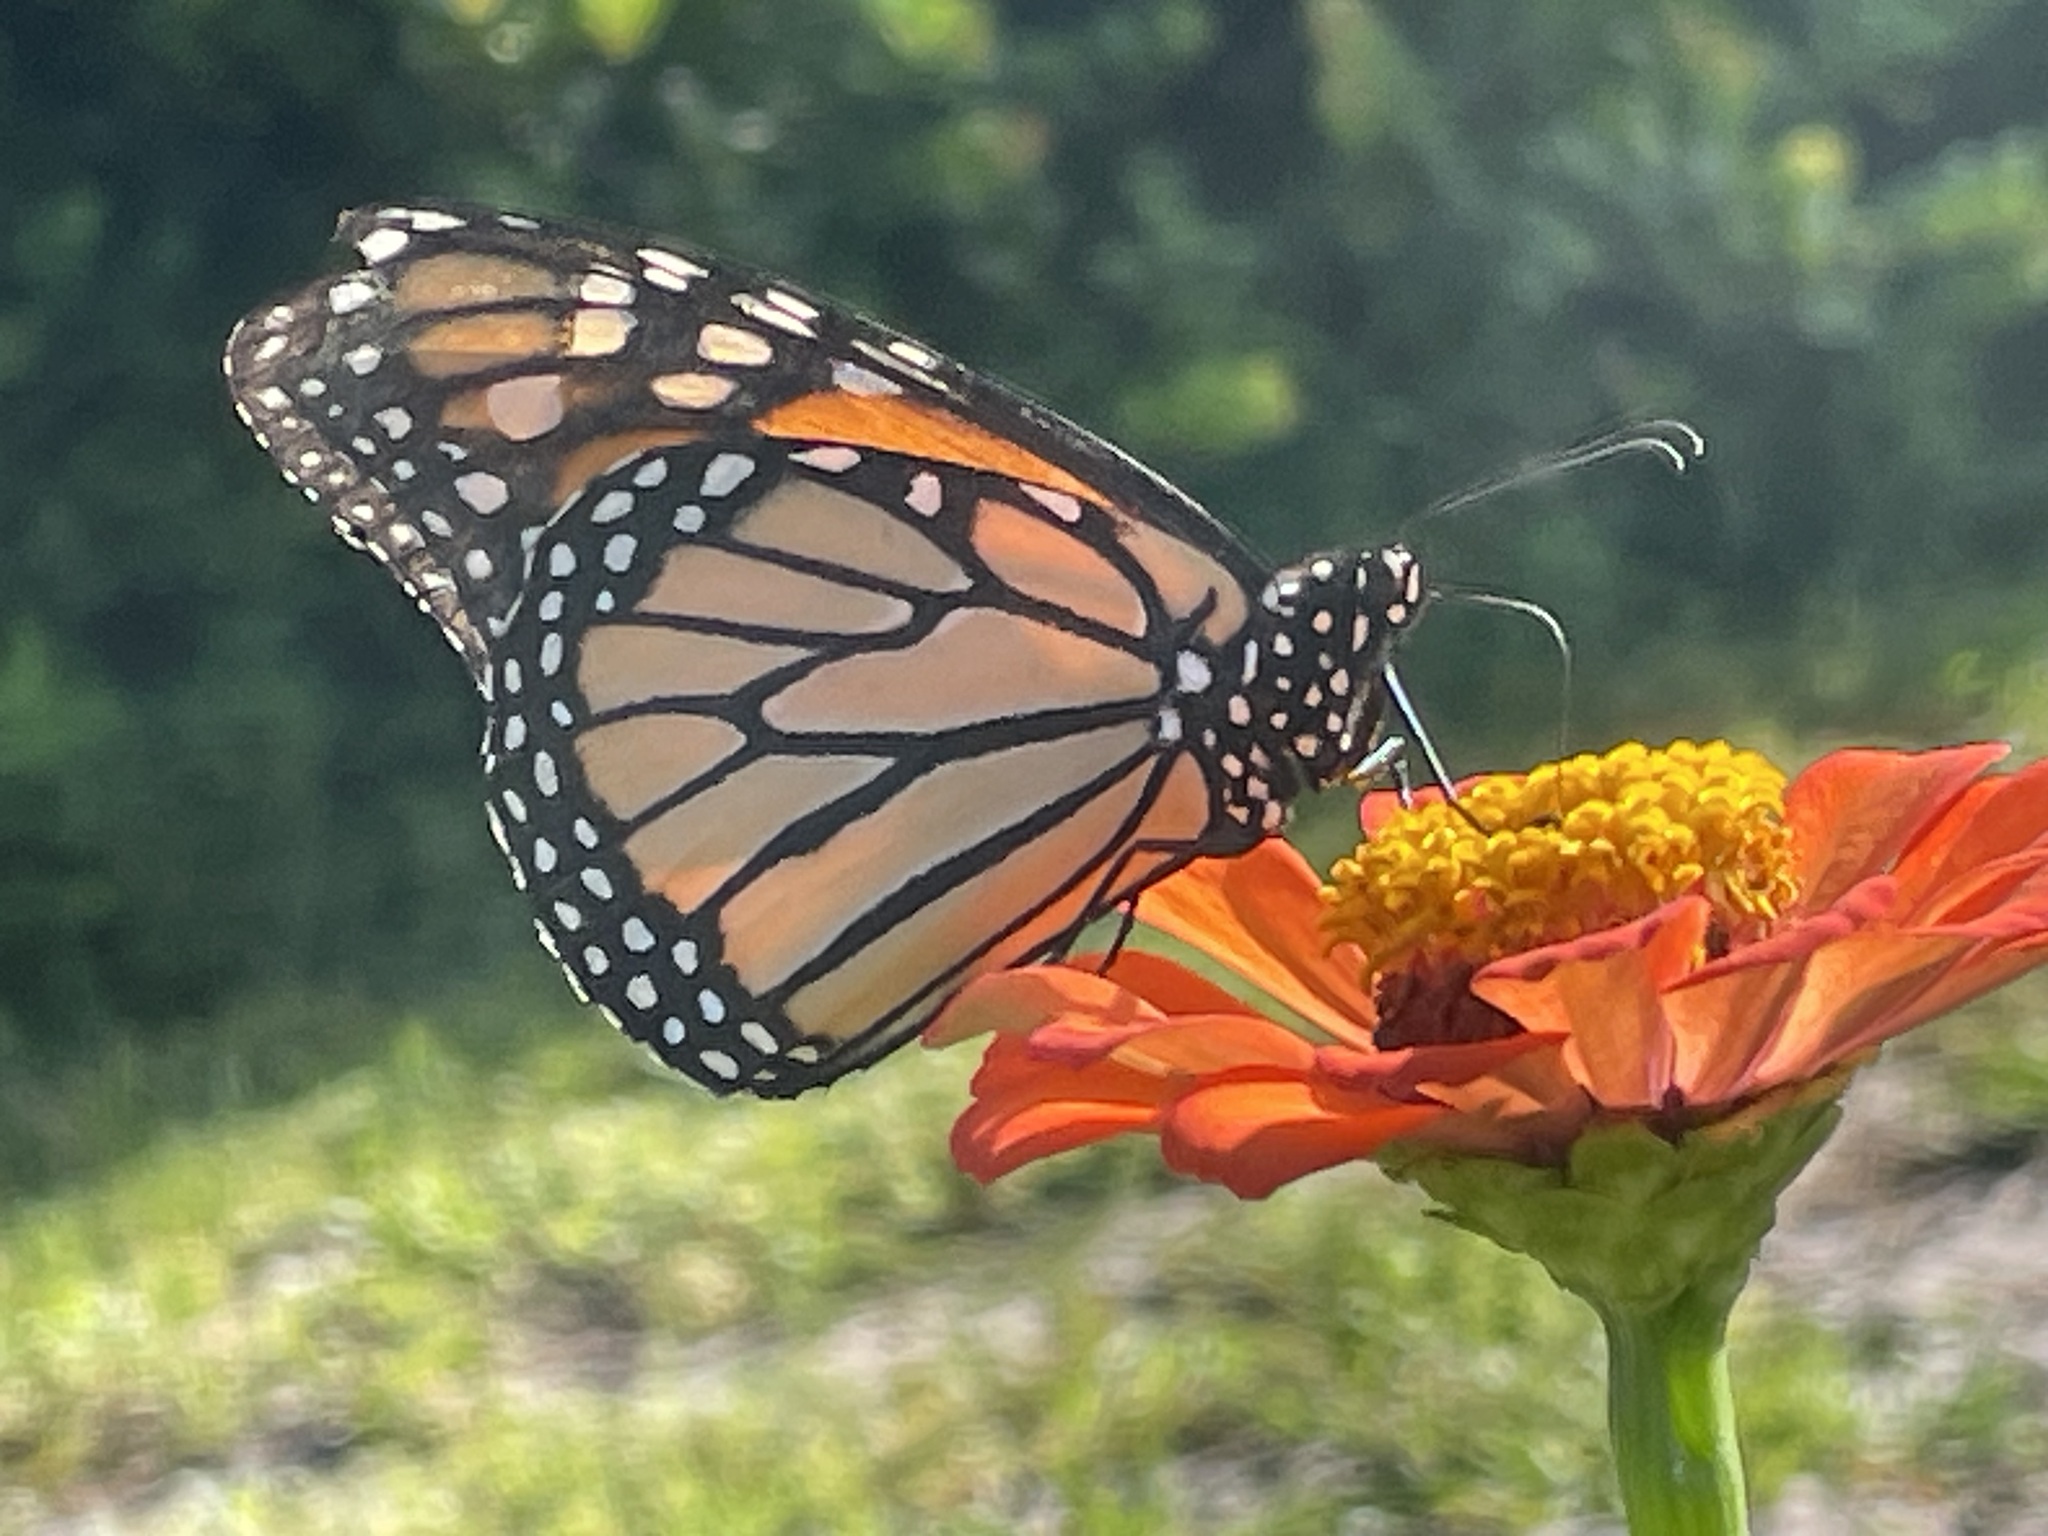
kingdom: Animalia
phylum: Arthropoda
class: Insecta
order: Lepidoptera
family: Nymphalidae
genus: Danaus
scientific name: Danaus plexippus
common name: Monarch
